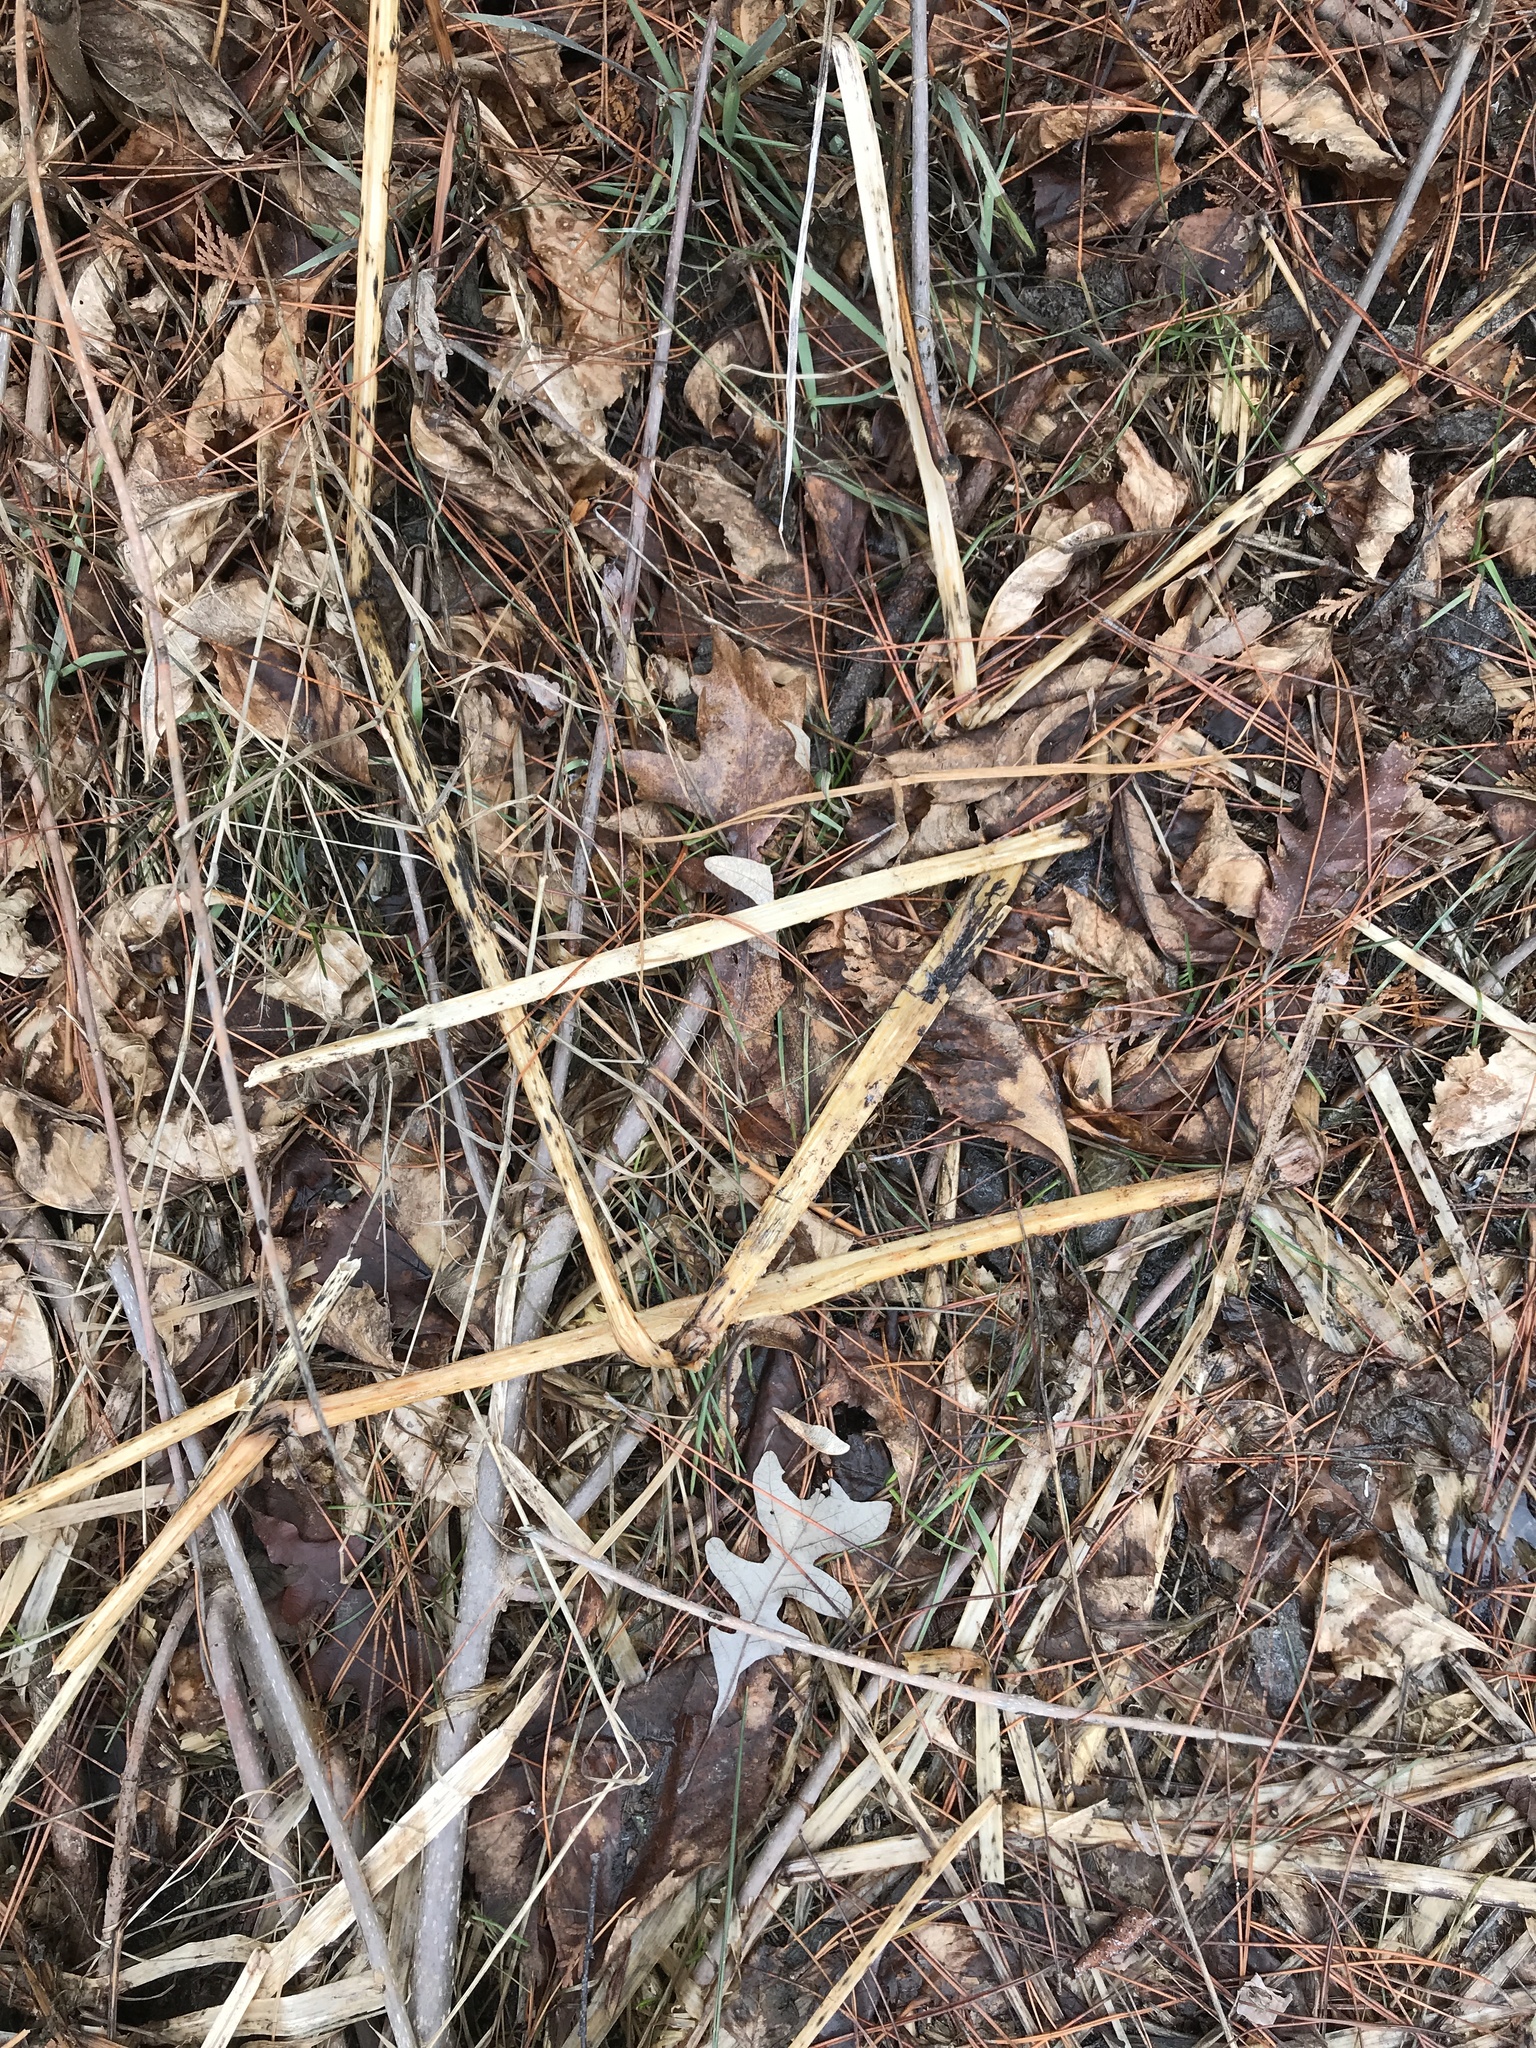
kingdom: Plantae
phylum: Tracheophyta
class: Magnoliopsida
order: Ericales
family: Balsaminaceae
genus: Impatiens
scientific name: Impatiens glandulifera
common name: Himalayan balsam
